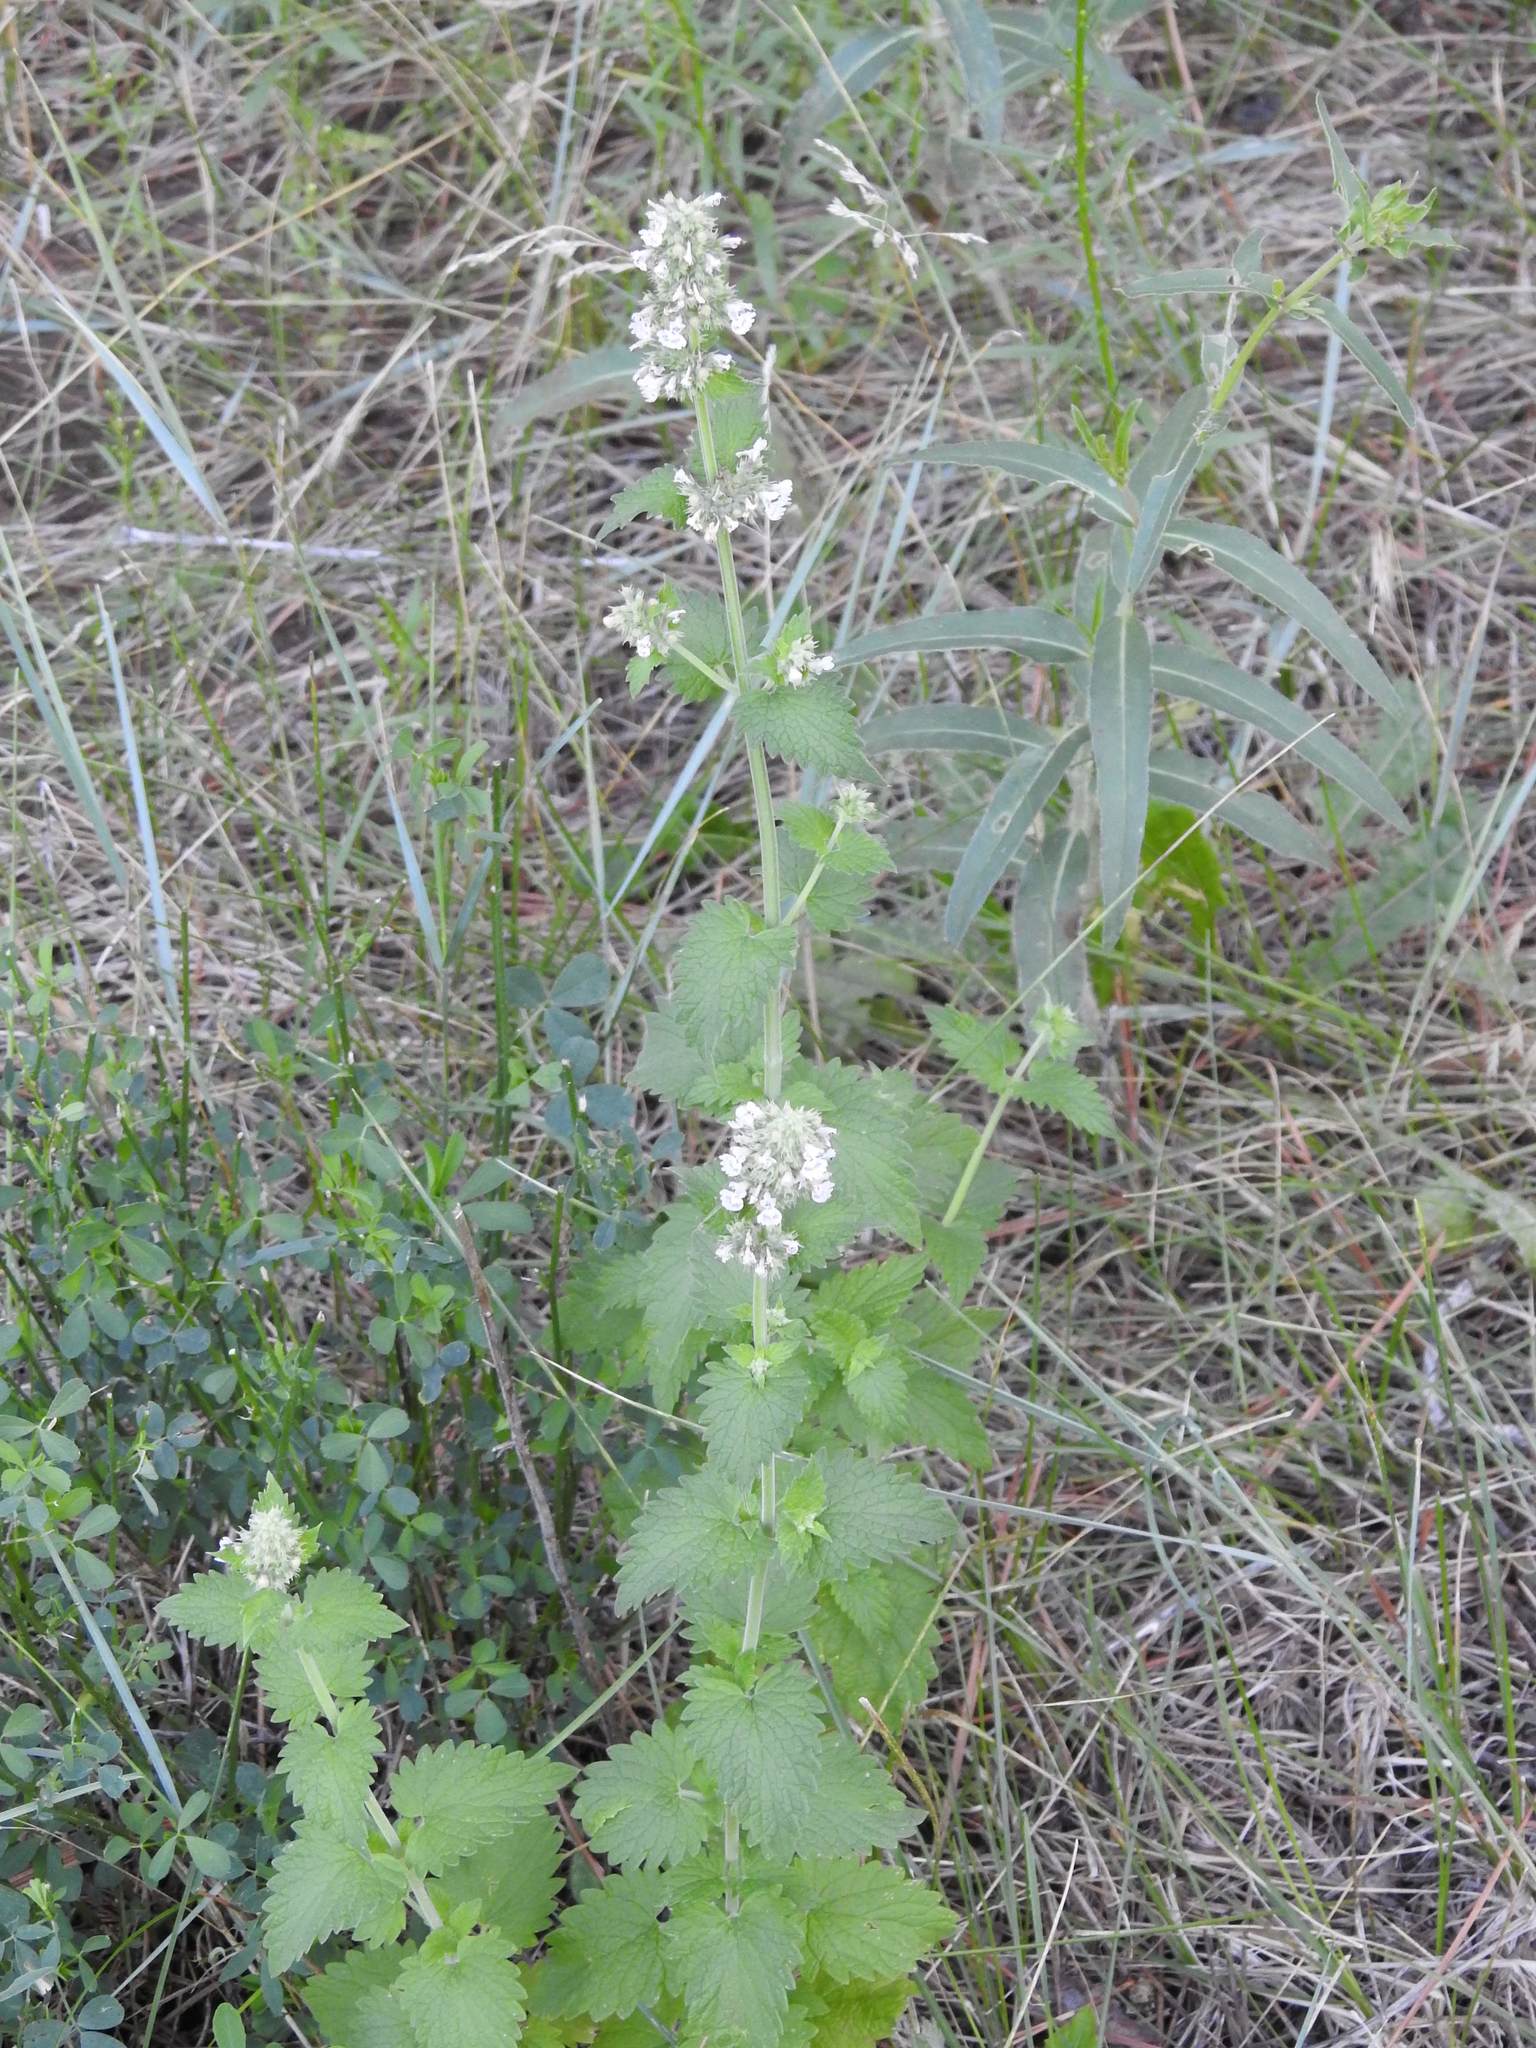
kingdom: Plantae
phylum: Tracheophyta
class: Magnoliopsida
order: Lamiales
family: Lamiaceae
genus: Nepeta
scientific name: Nepeta cataria
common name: Catnip
